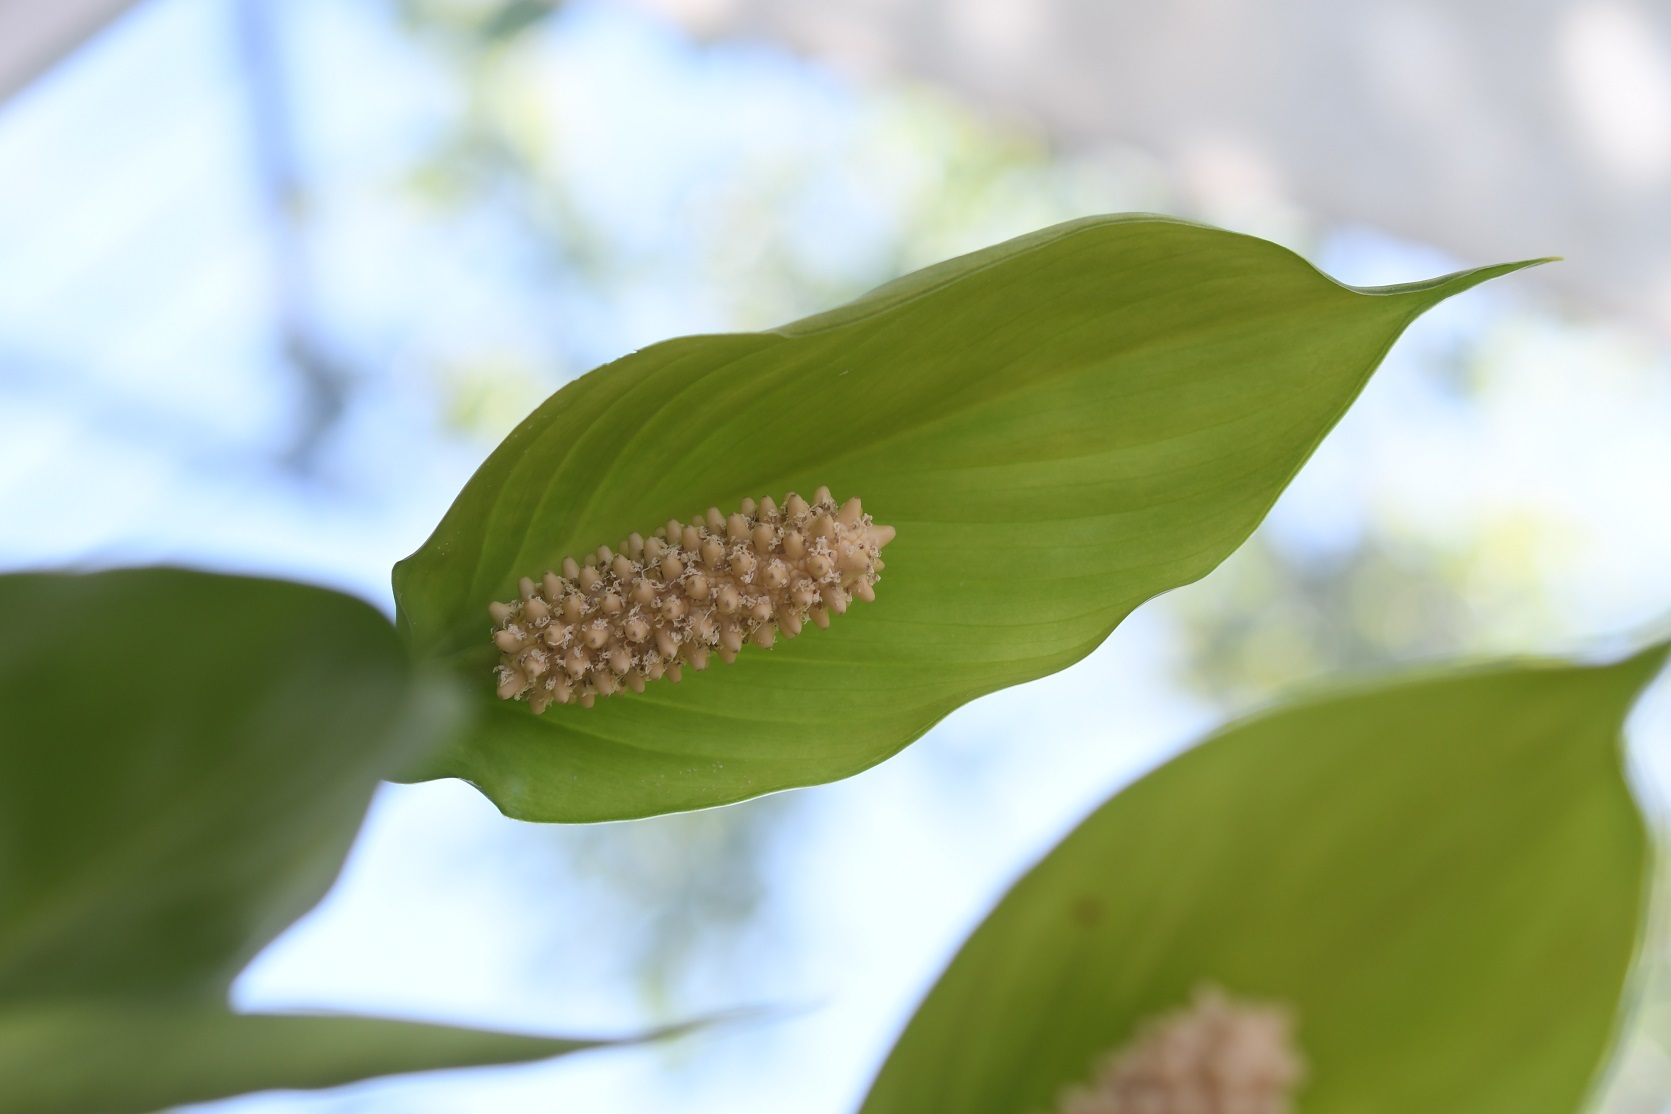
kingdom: Plantae
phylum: Tracheophyta
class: Liliopsida
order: Alismatales
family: Araceae
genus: Spathiphyllum
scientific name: Spathiphyllum cochlearispathum
